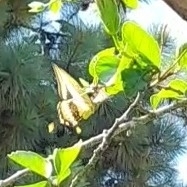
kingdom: Animalia
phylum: Arthropoda
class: Insecta
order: Lepidoptera
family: Papilionidae
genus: Papilio
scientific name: Papilio thoas
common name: King swallowtail
